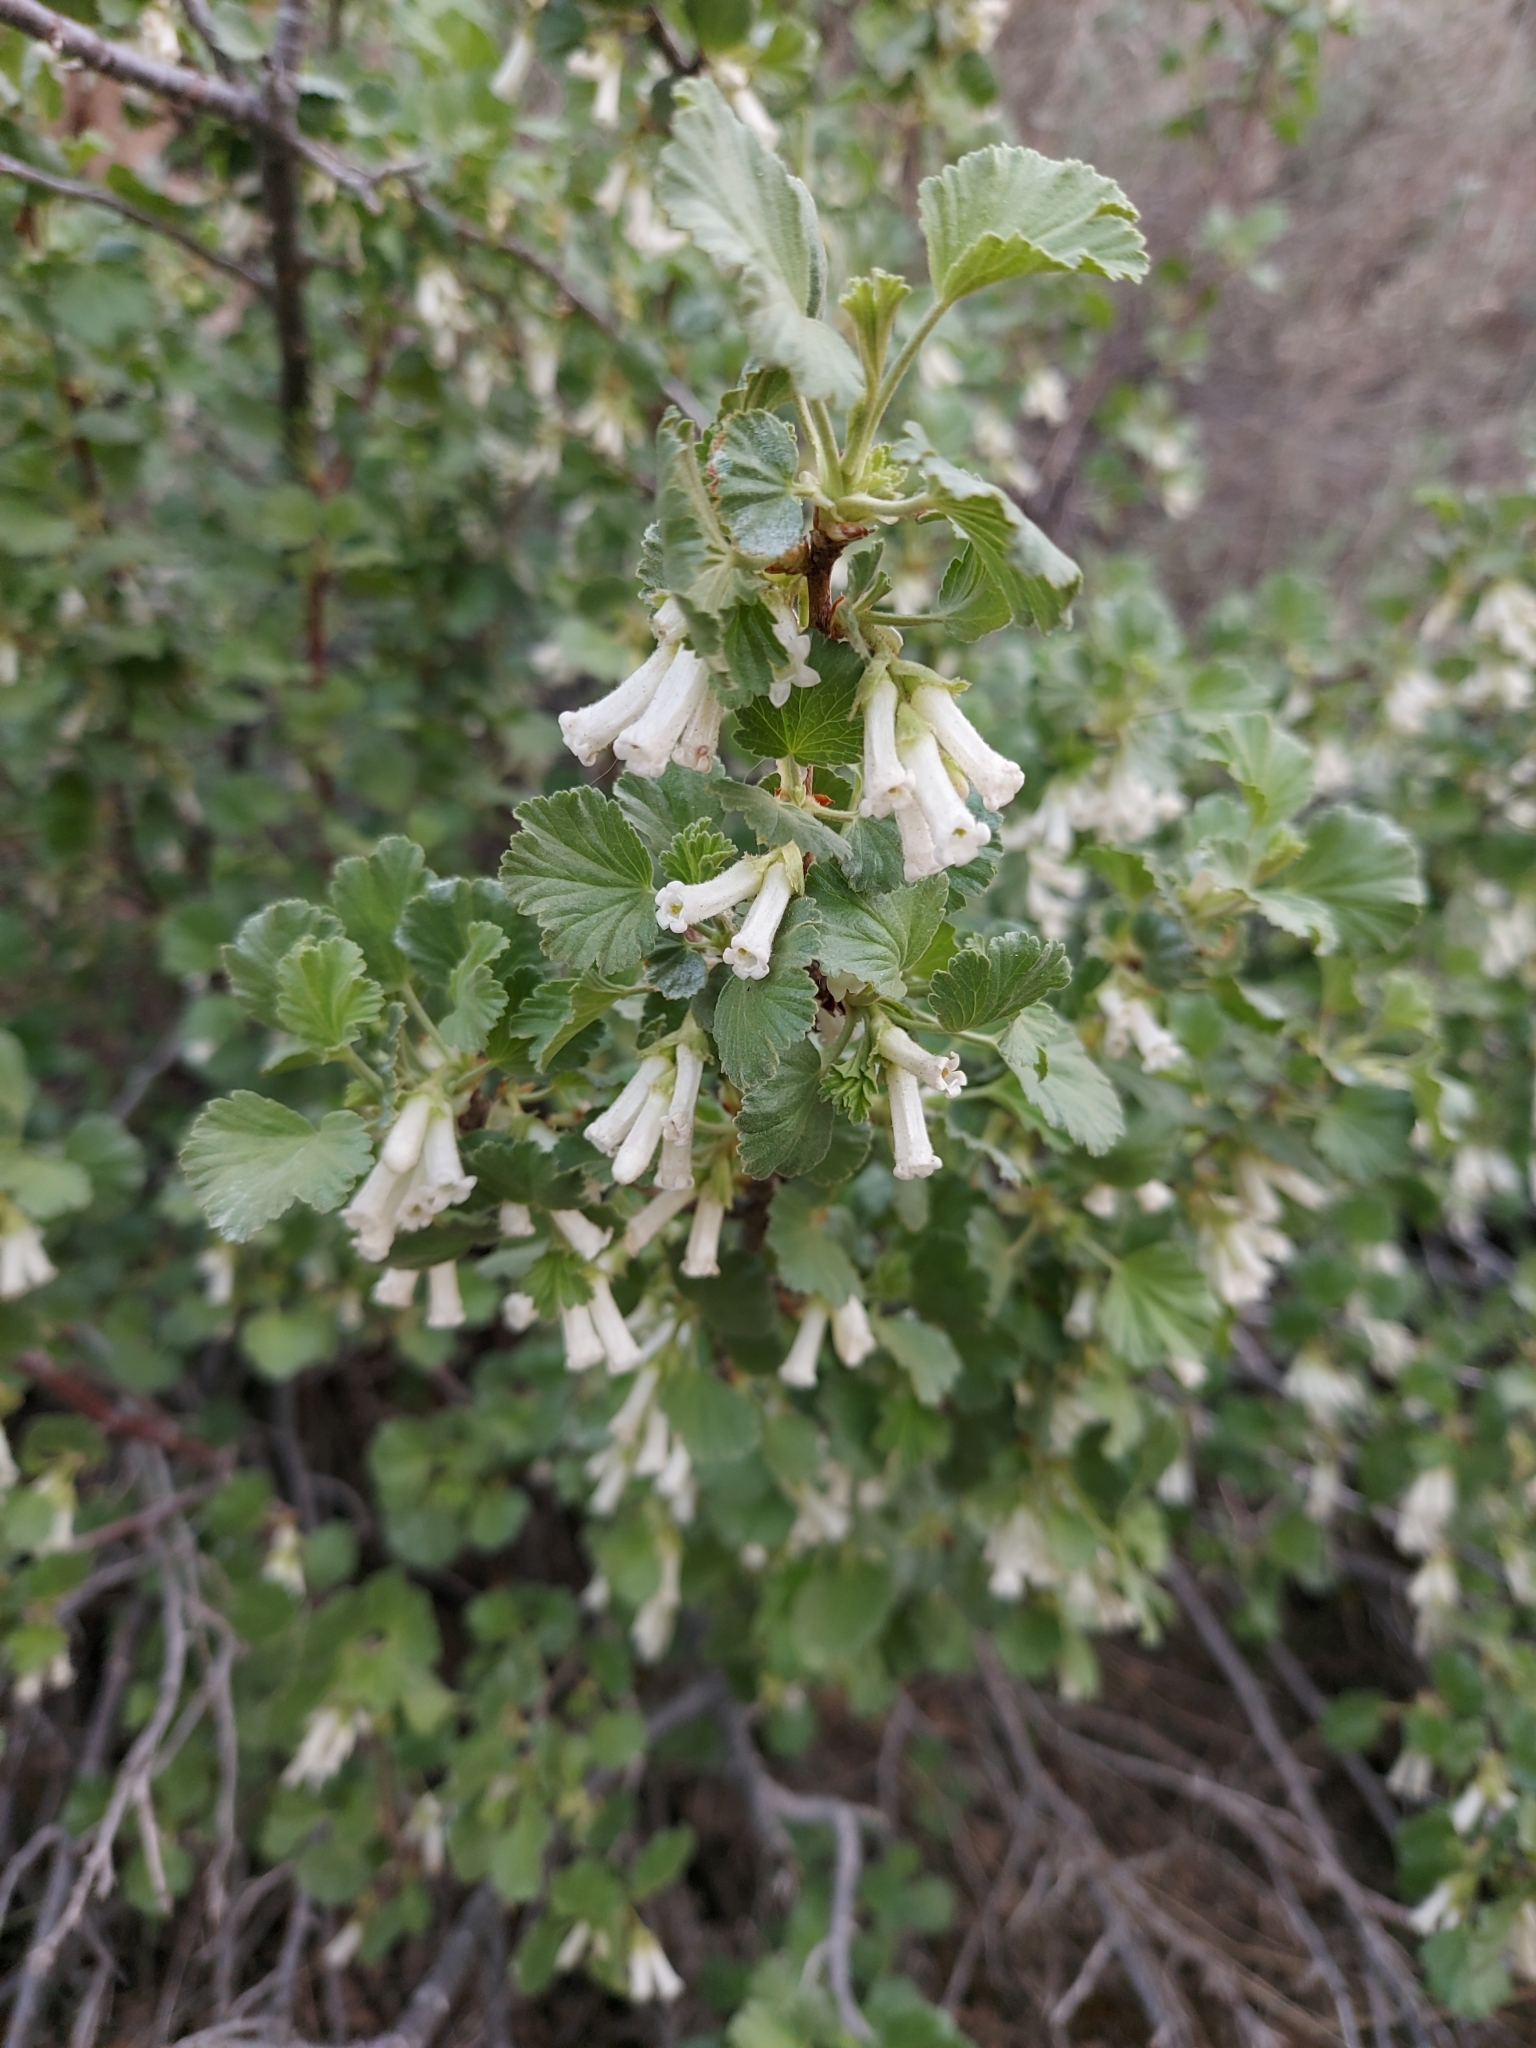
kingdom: Plantae
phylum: Tracheophyta
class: Magnoliopsida
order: Saxifragales
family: Grossulariaceae
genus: Ribes
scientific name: Ribes cereum
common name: Wax currant
